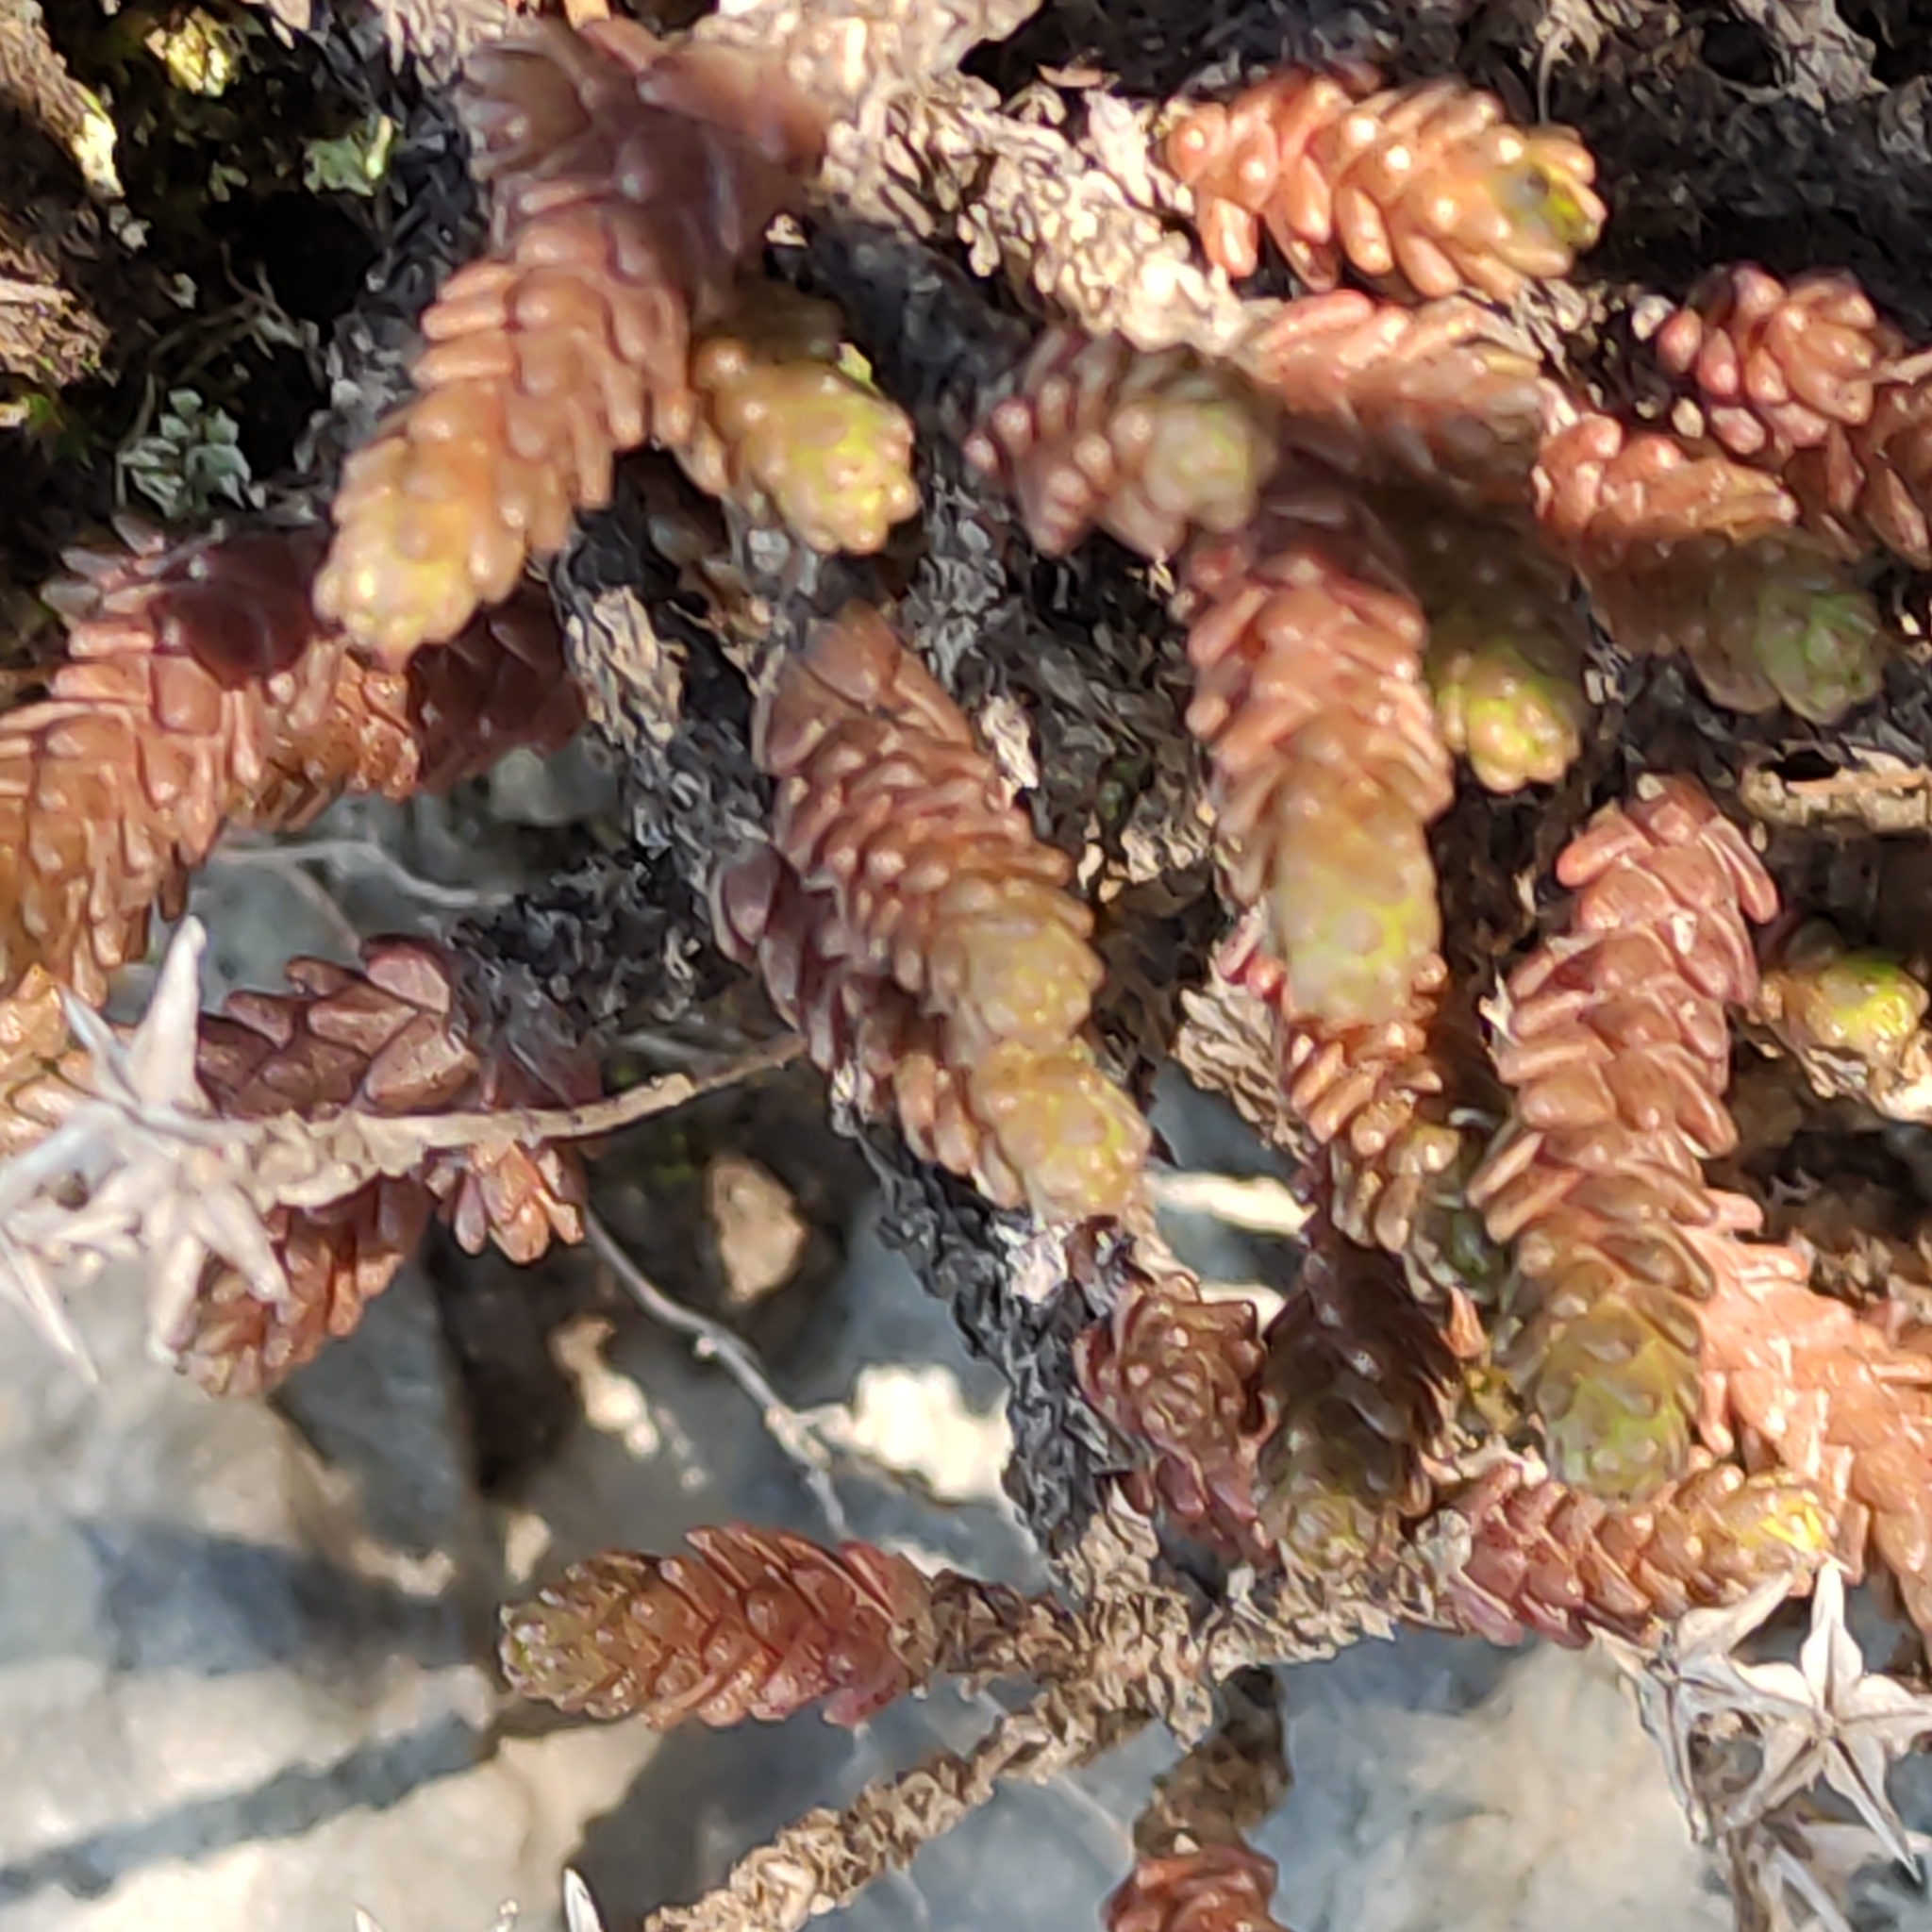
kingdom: Plantae
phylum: Tracheophyta
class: Magnoliopsida
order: Saxifragales
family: Crassulaceae
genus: Sedum
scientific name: Sedum acre
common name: Biting stonecrop
